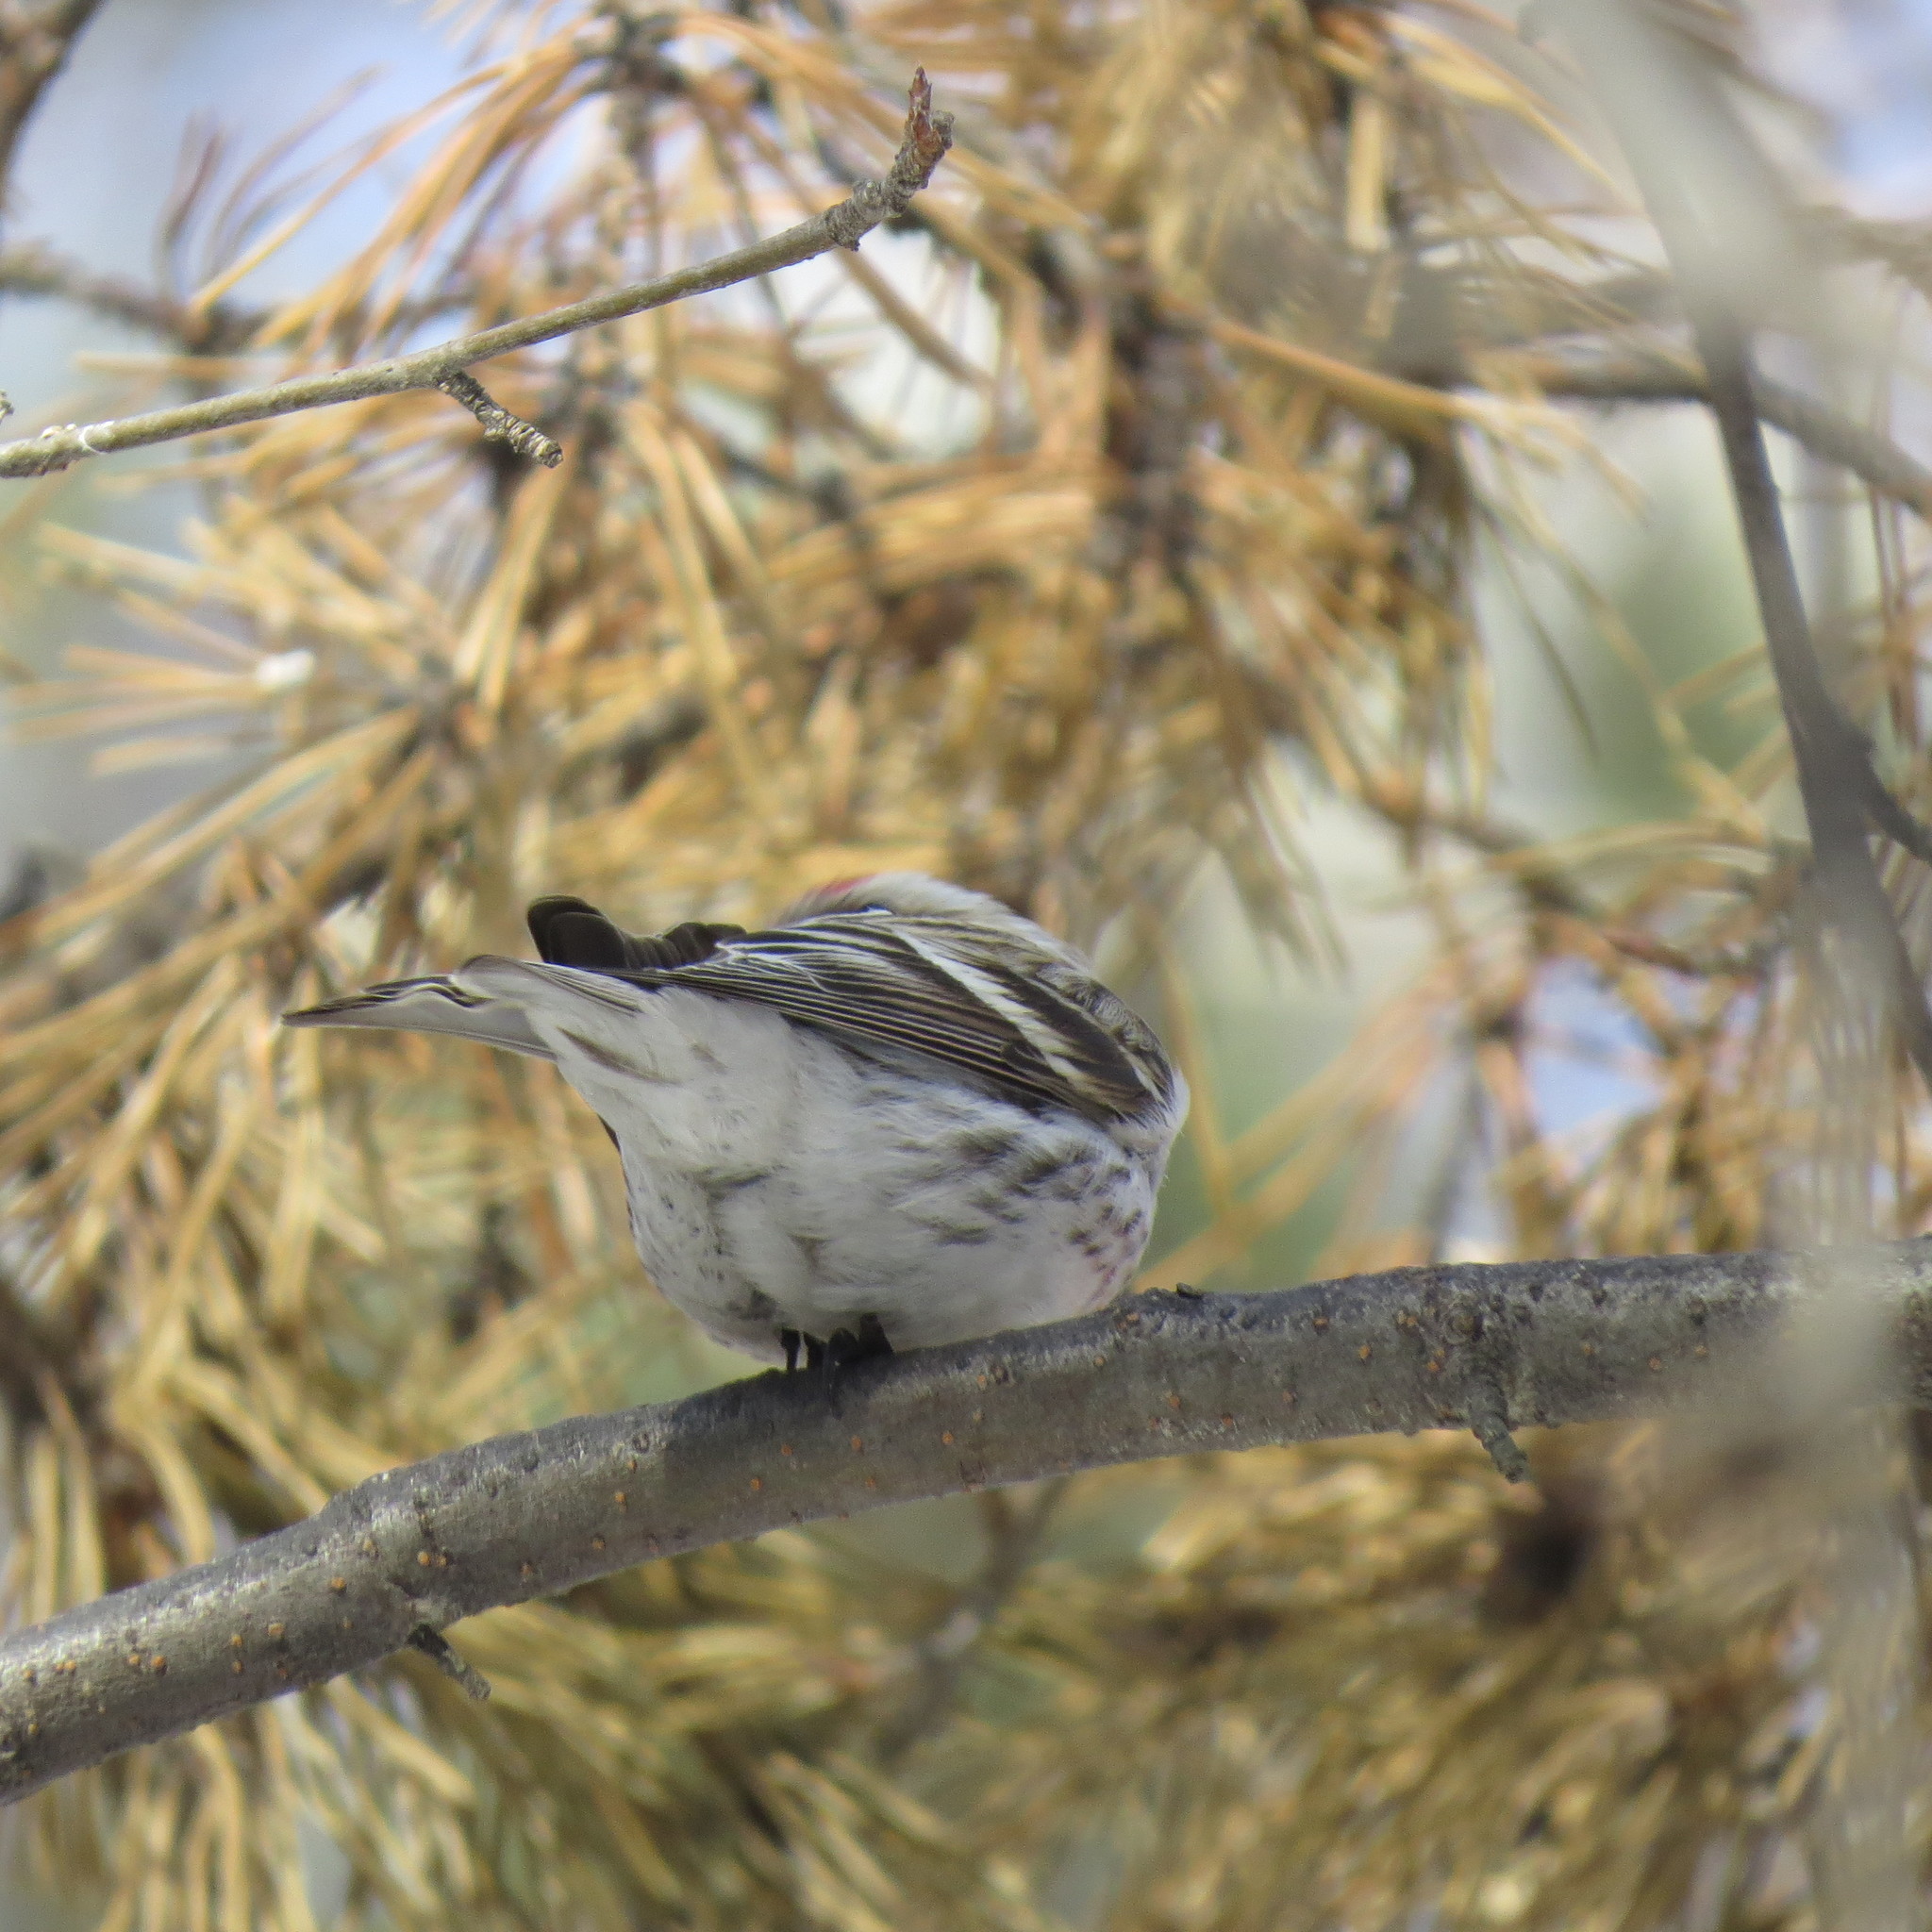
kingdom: Animalia
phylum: Chordata
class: Aves
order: Passeriformes
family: Fringillidae
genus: Acanthis
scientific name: Acanthis flammea
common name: Common redpoll
